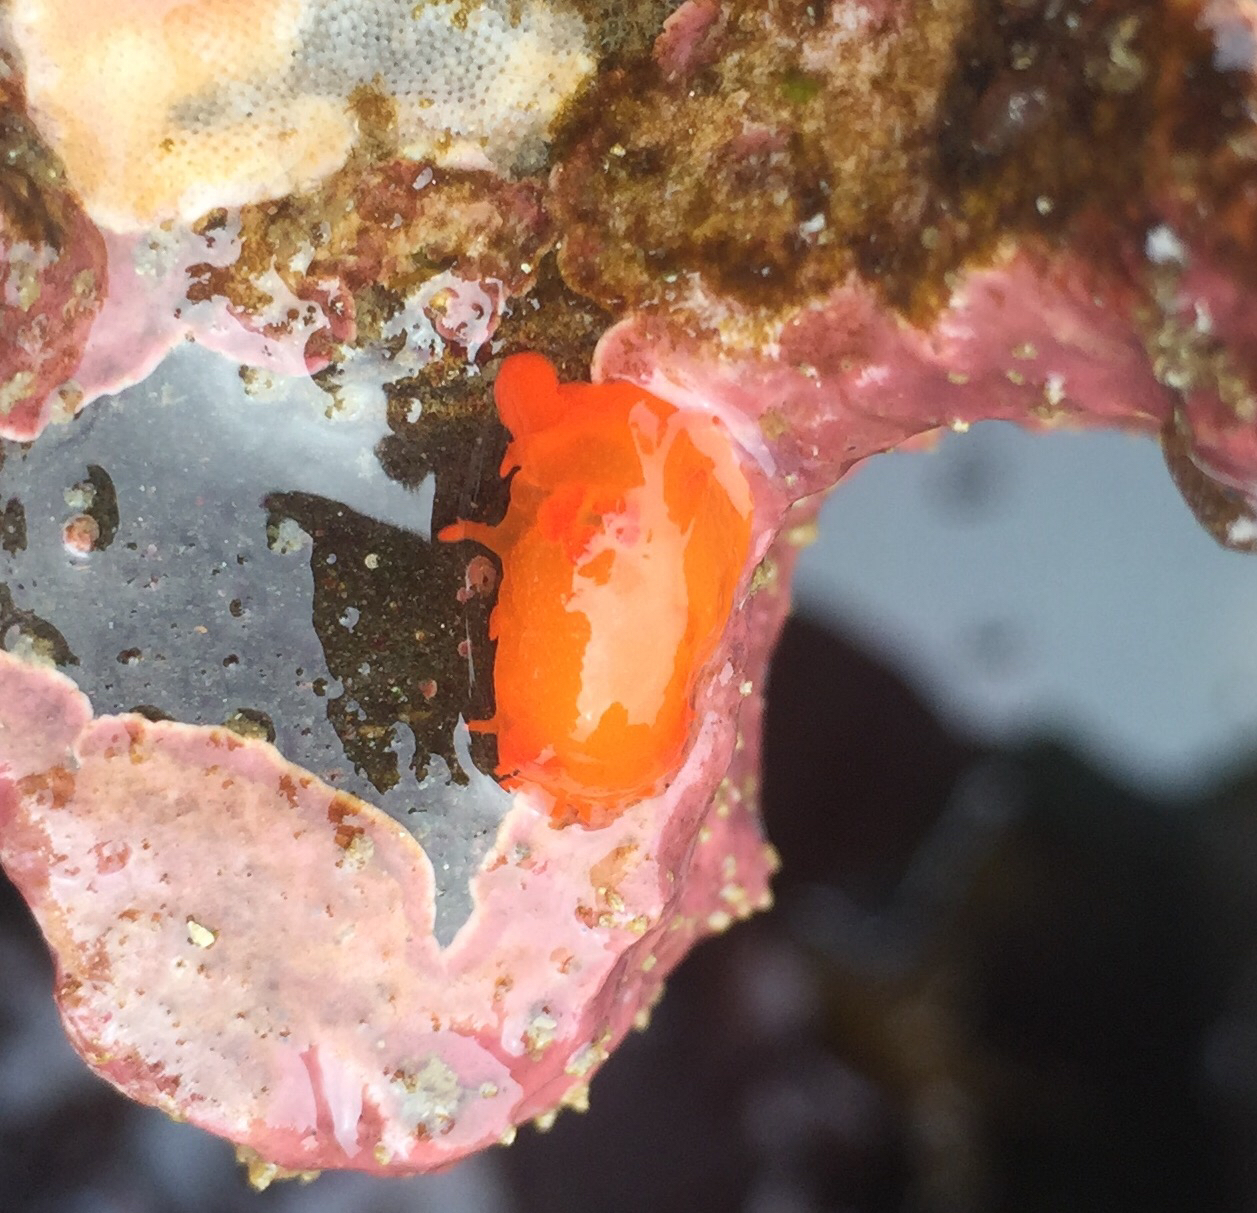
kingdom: Animalia
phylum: Mollusca
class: Gastropoda
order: Nudibranchia
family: Polyceridae
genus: Triopha
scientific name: Triopha maculata
